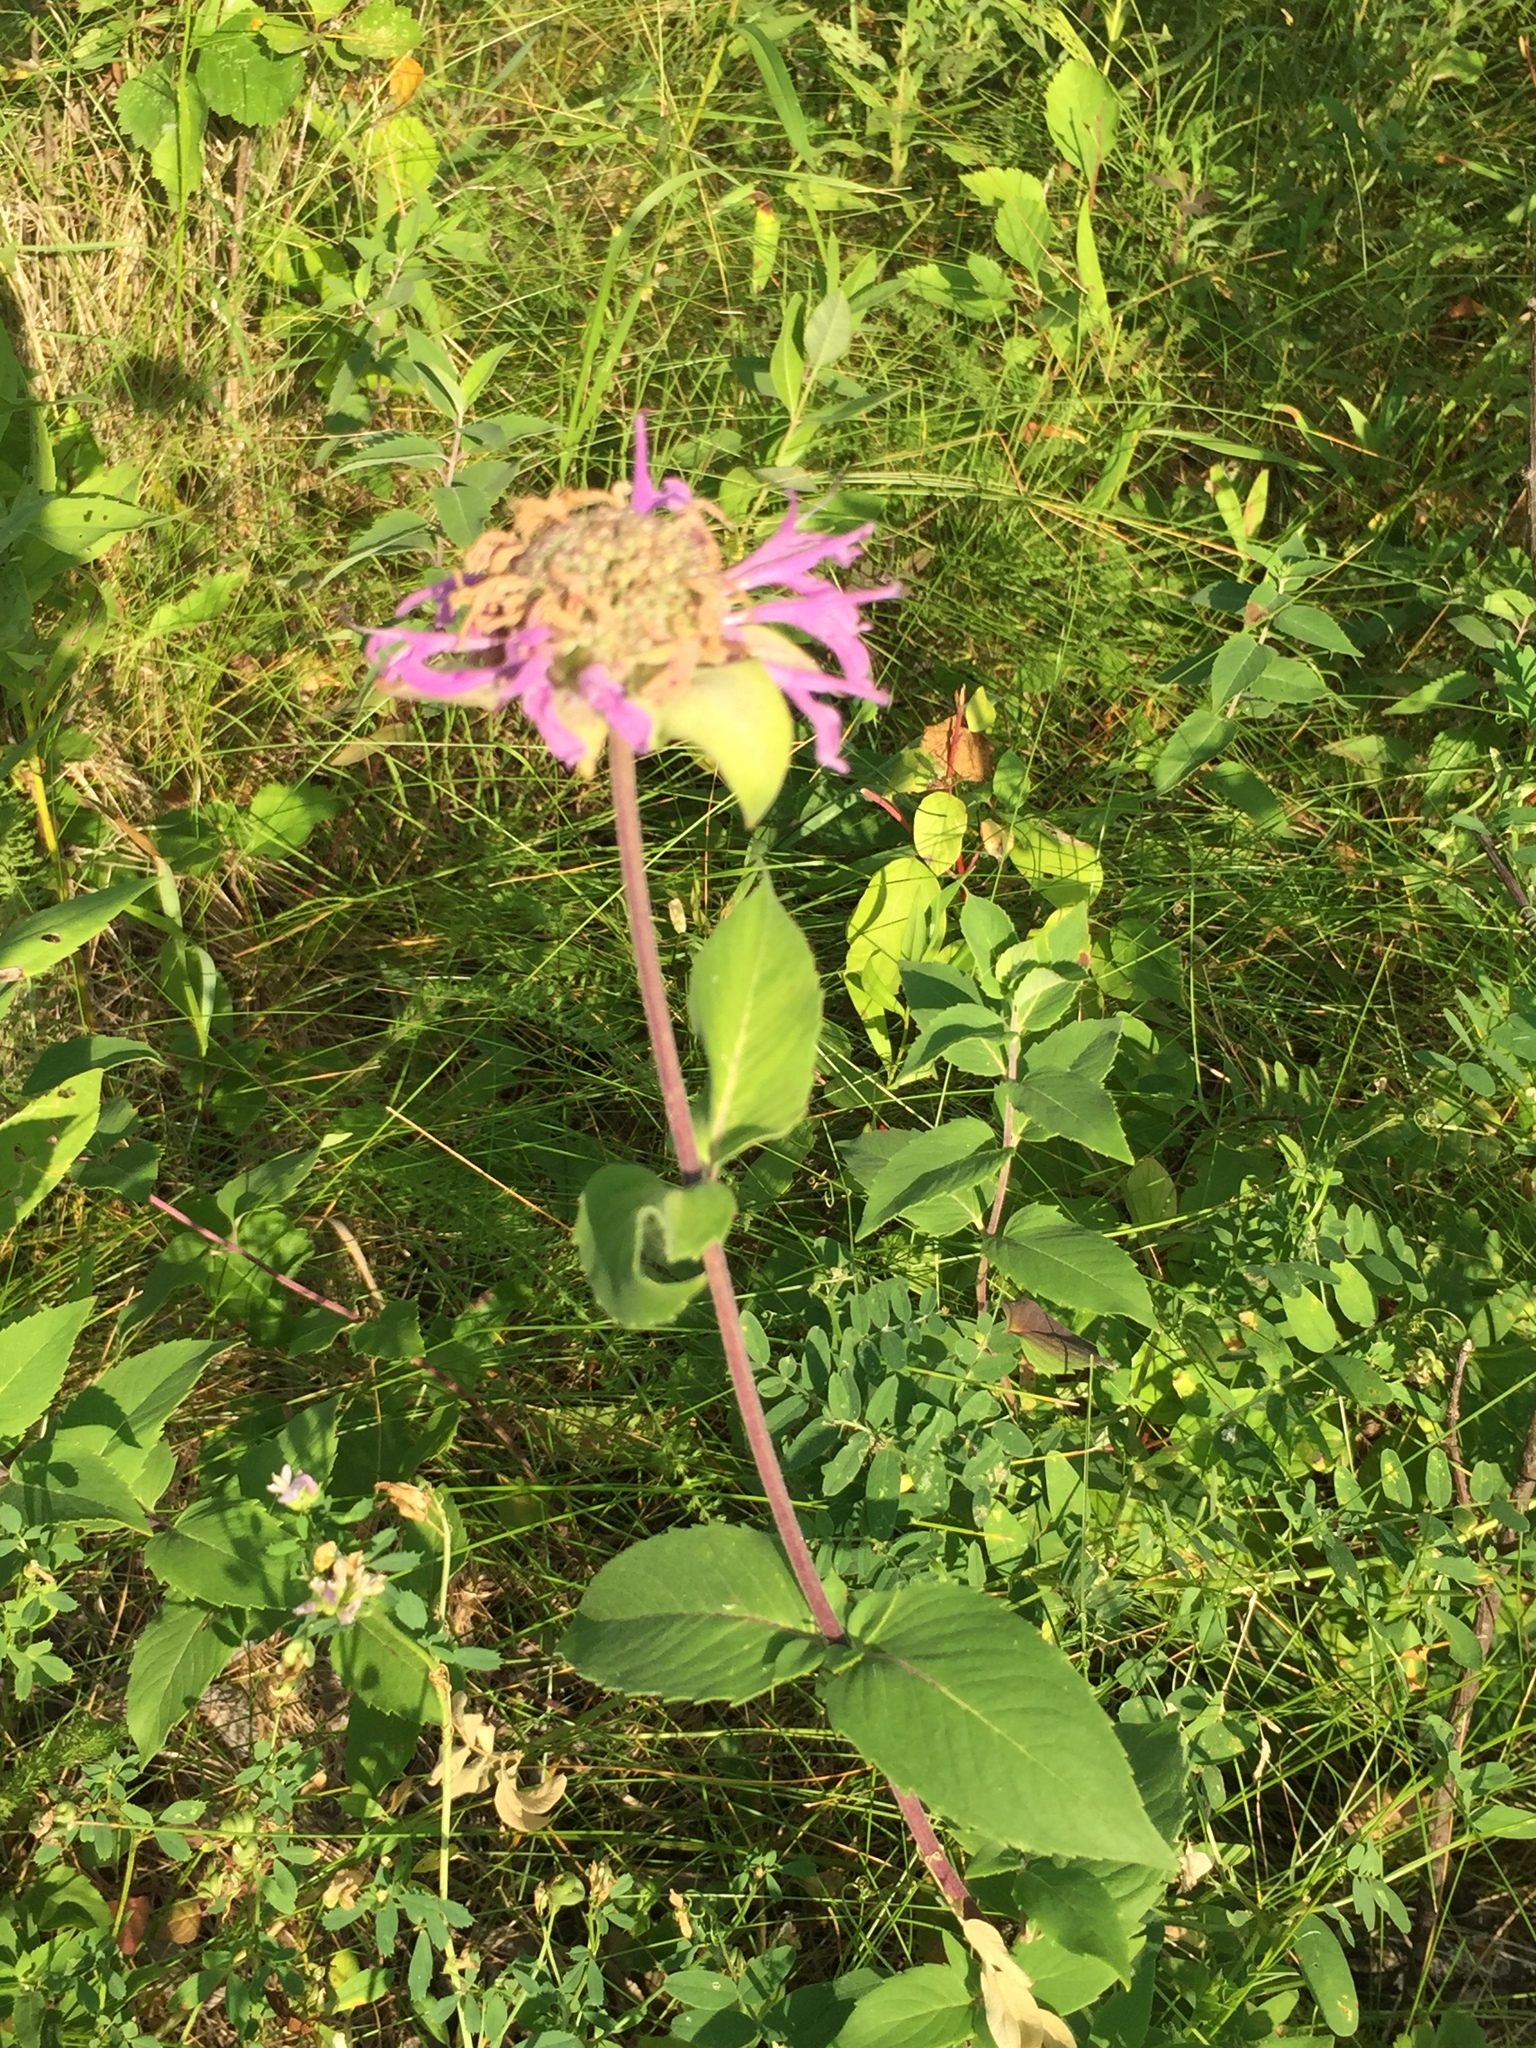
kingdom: Plantae
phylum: Tracheophyta
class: Magnoliopsida
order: Lamiales
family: Lamiaceae
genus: Monarda
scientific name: Monarda fistulosa
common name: Purple beebalm
